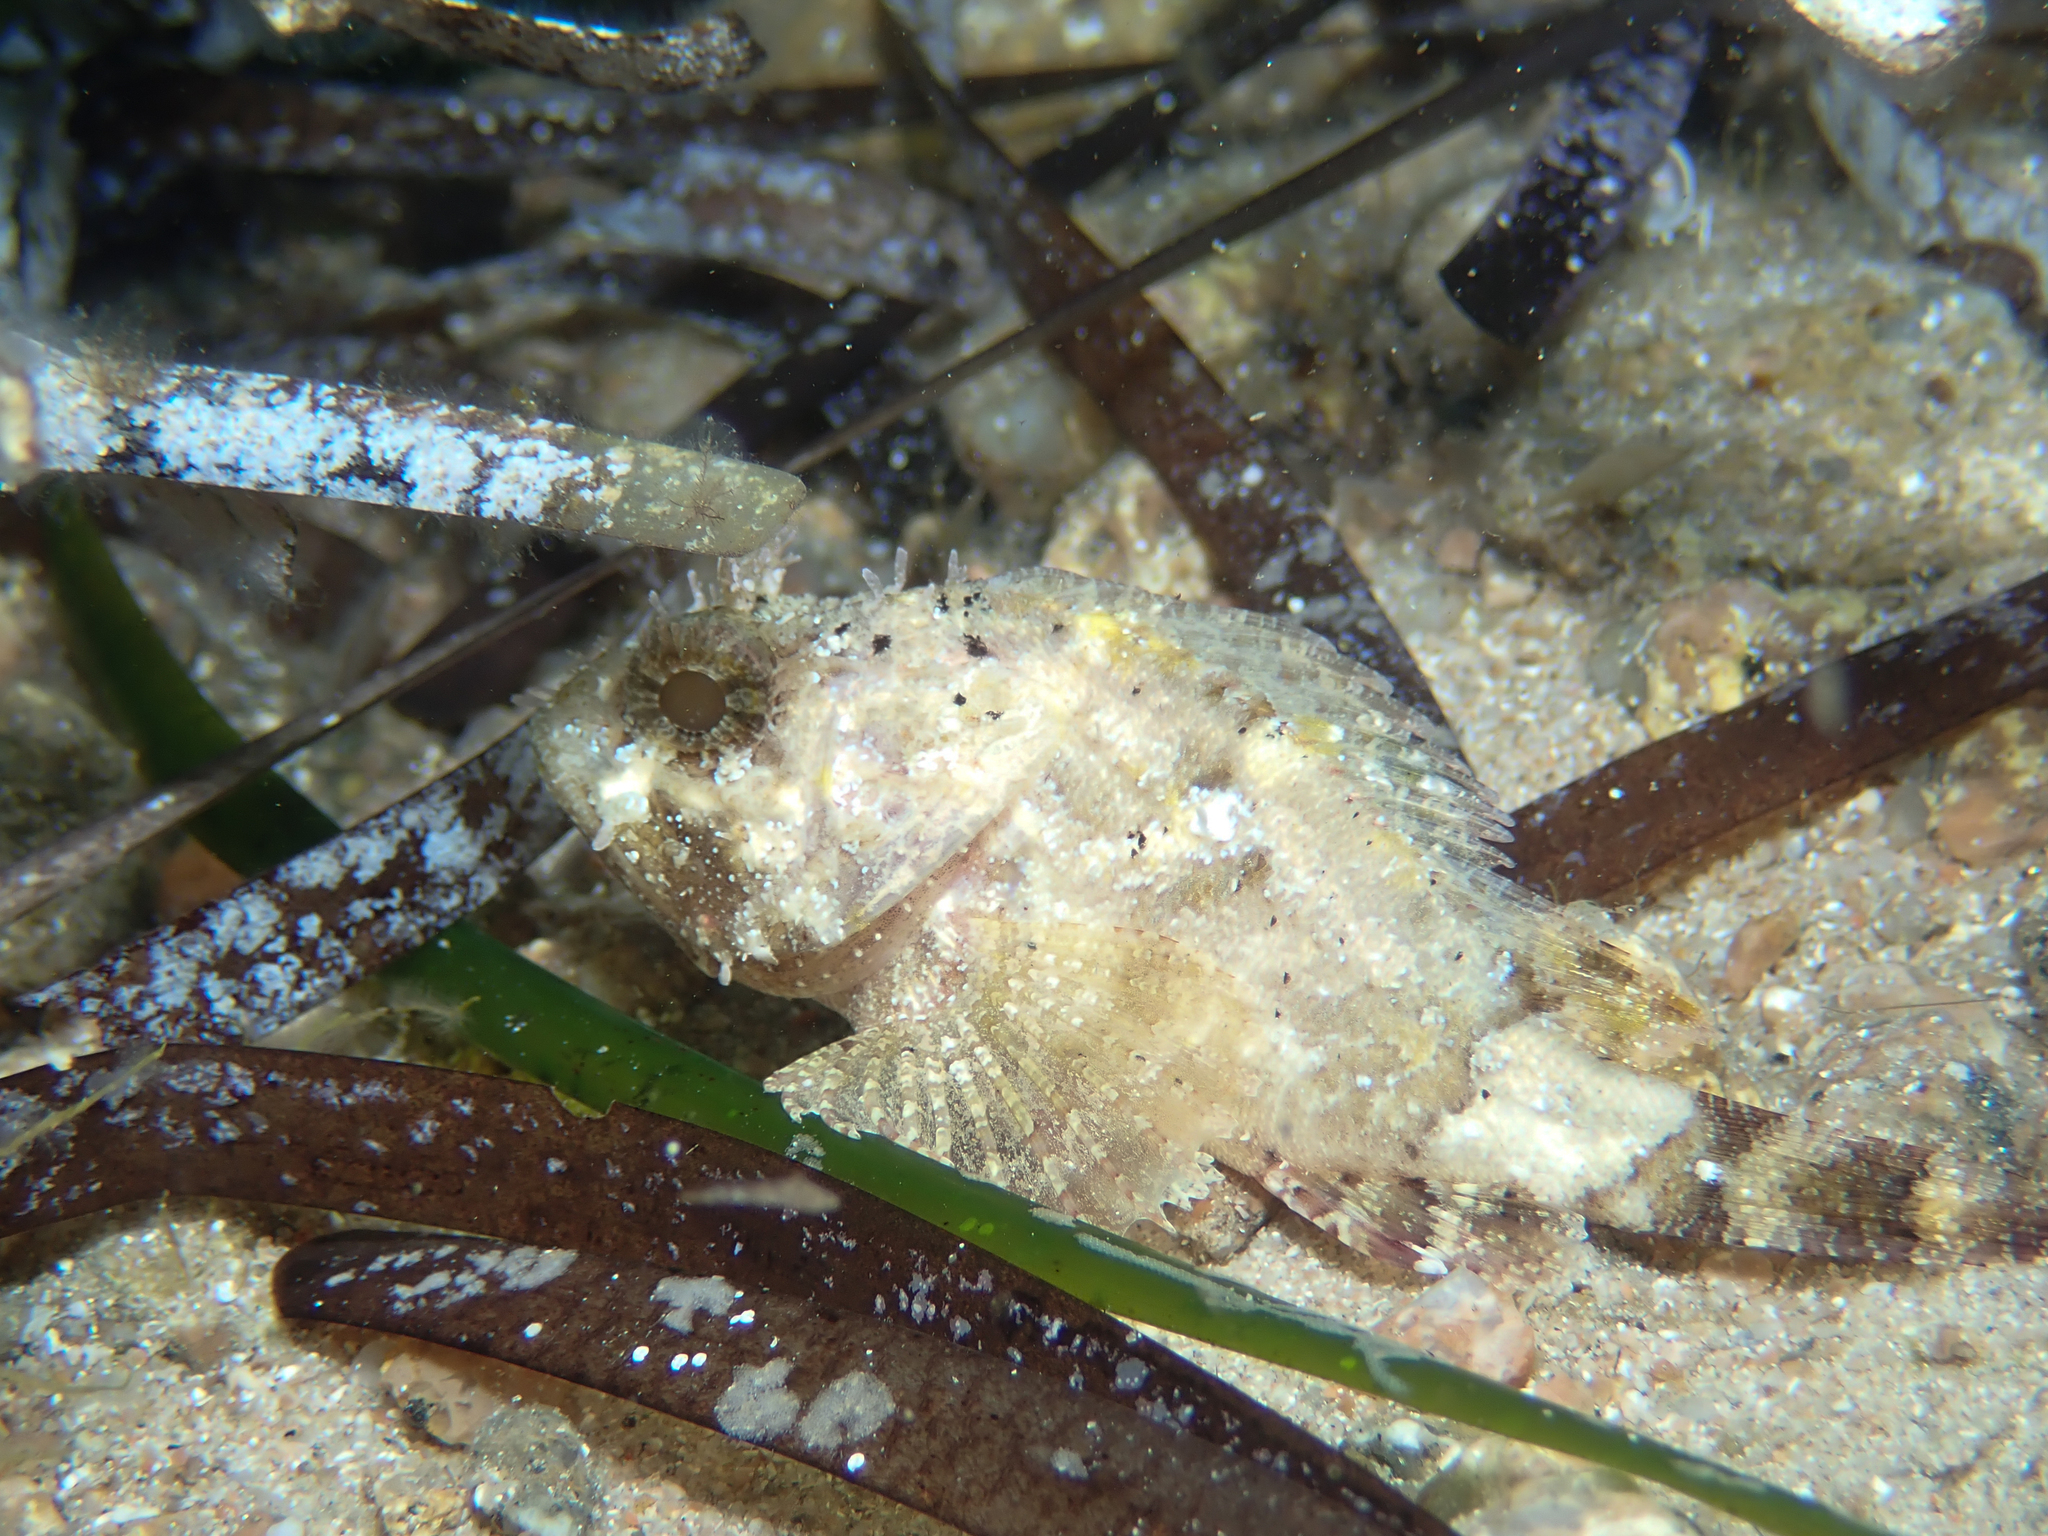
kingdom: Animalia
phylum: Chordata
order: Scorpaeniformes
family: Scorpaenidae
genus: Scorpaena
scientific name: Scorpaena porcus
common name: Black scorpionfish
